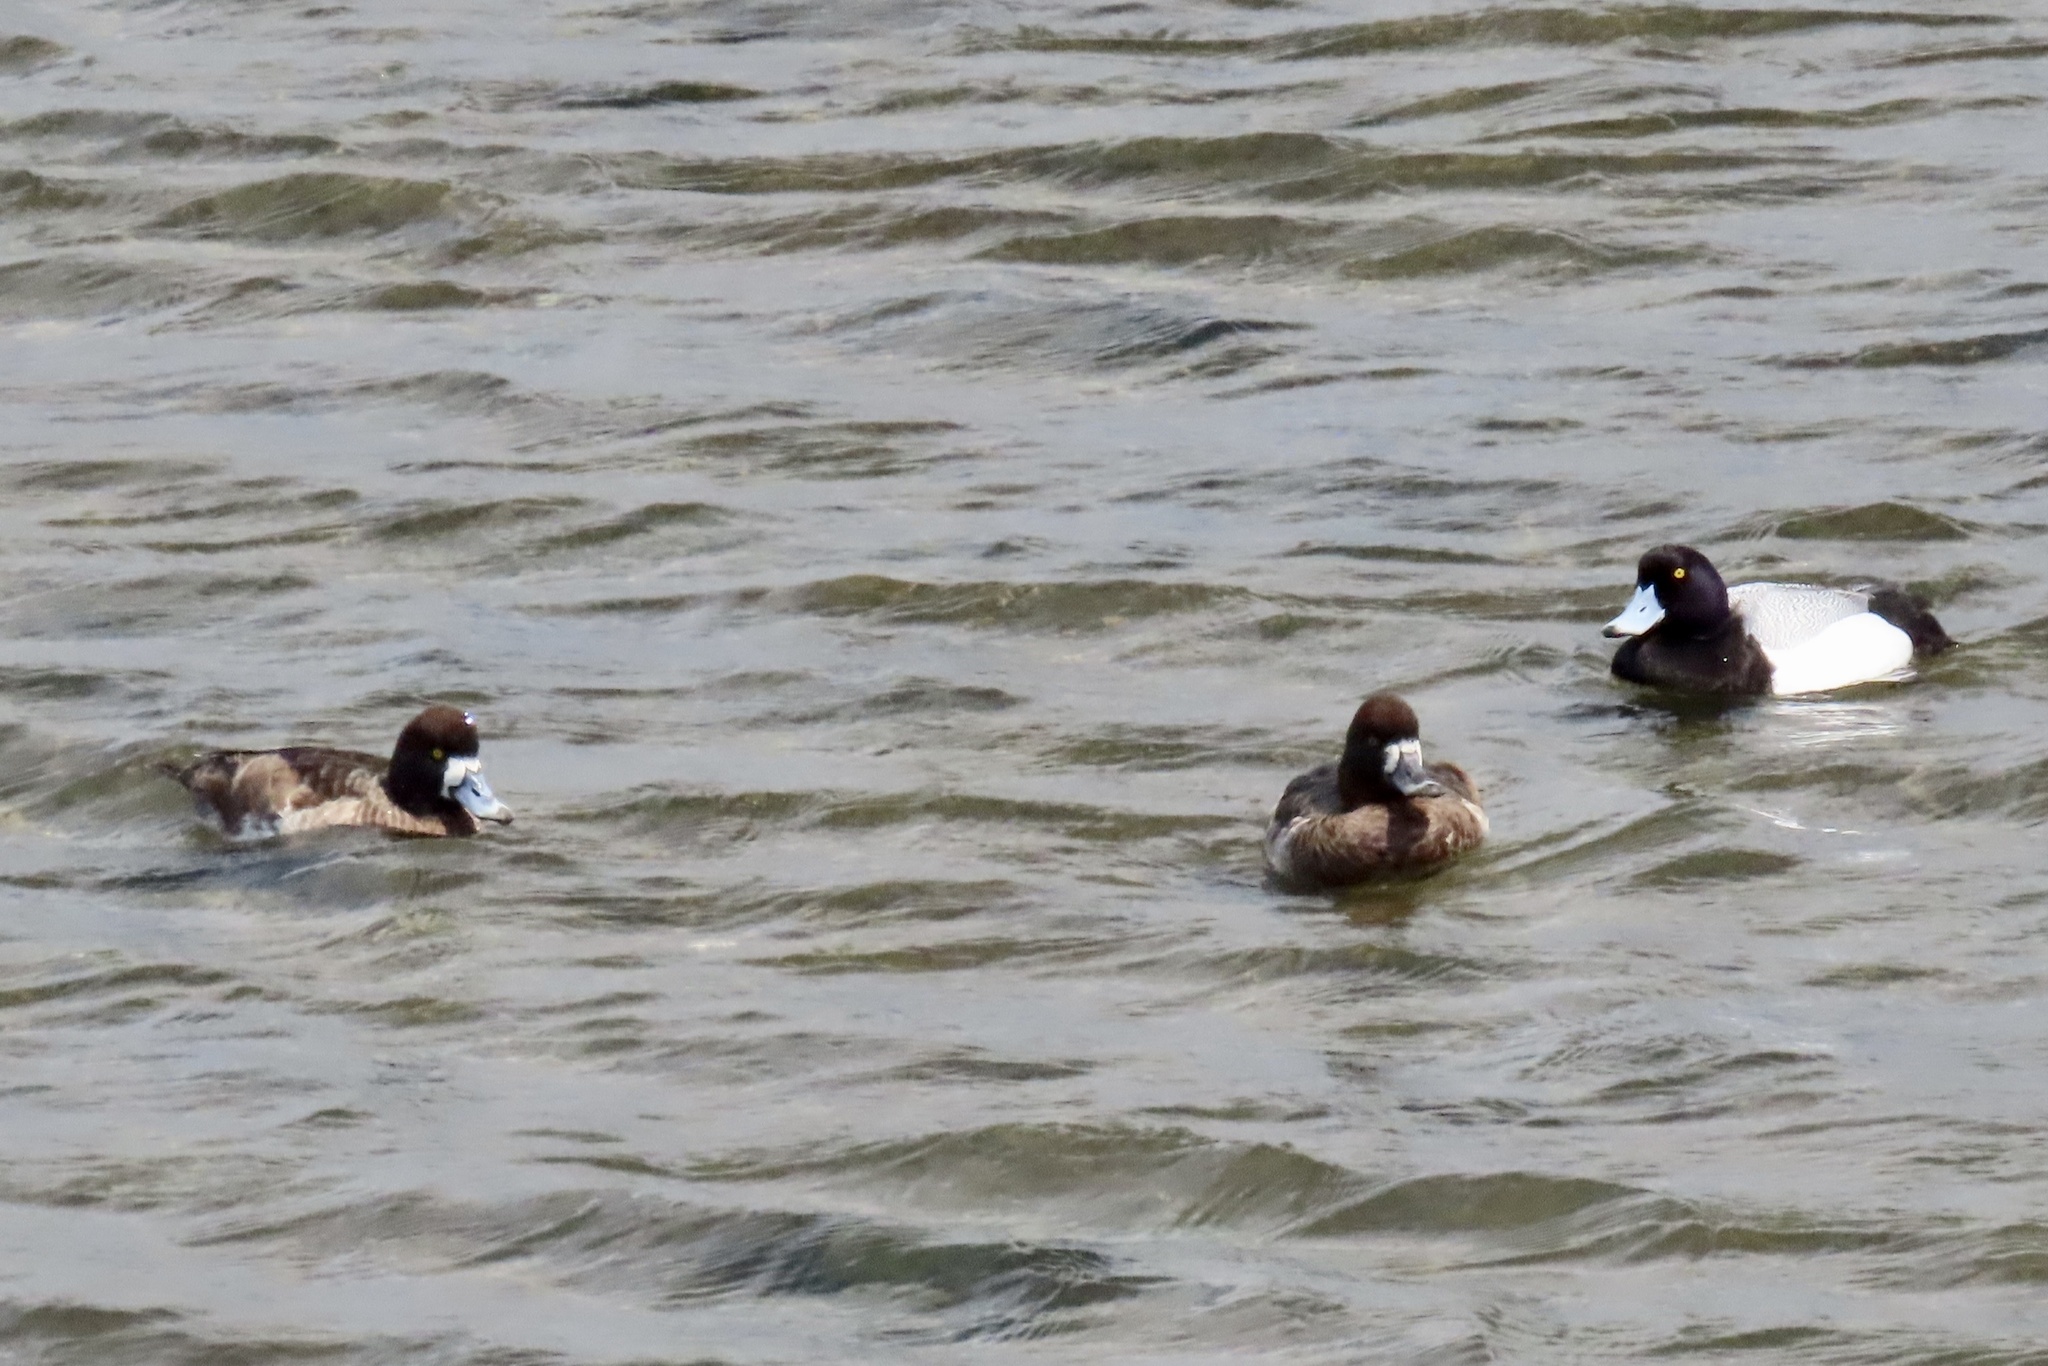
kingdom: Animalia
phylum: Chordata
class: Aves
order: Anseriformes
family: Anatidae
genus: Aythya
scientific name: Aythya affinis
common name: Lesser scaup
